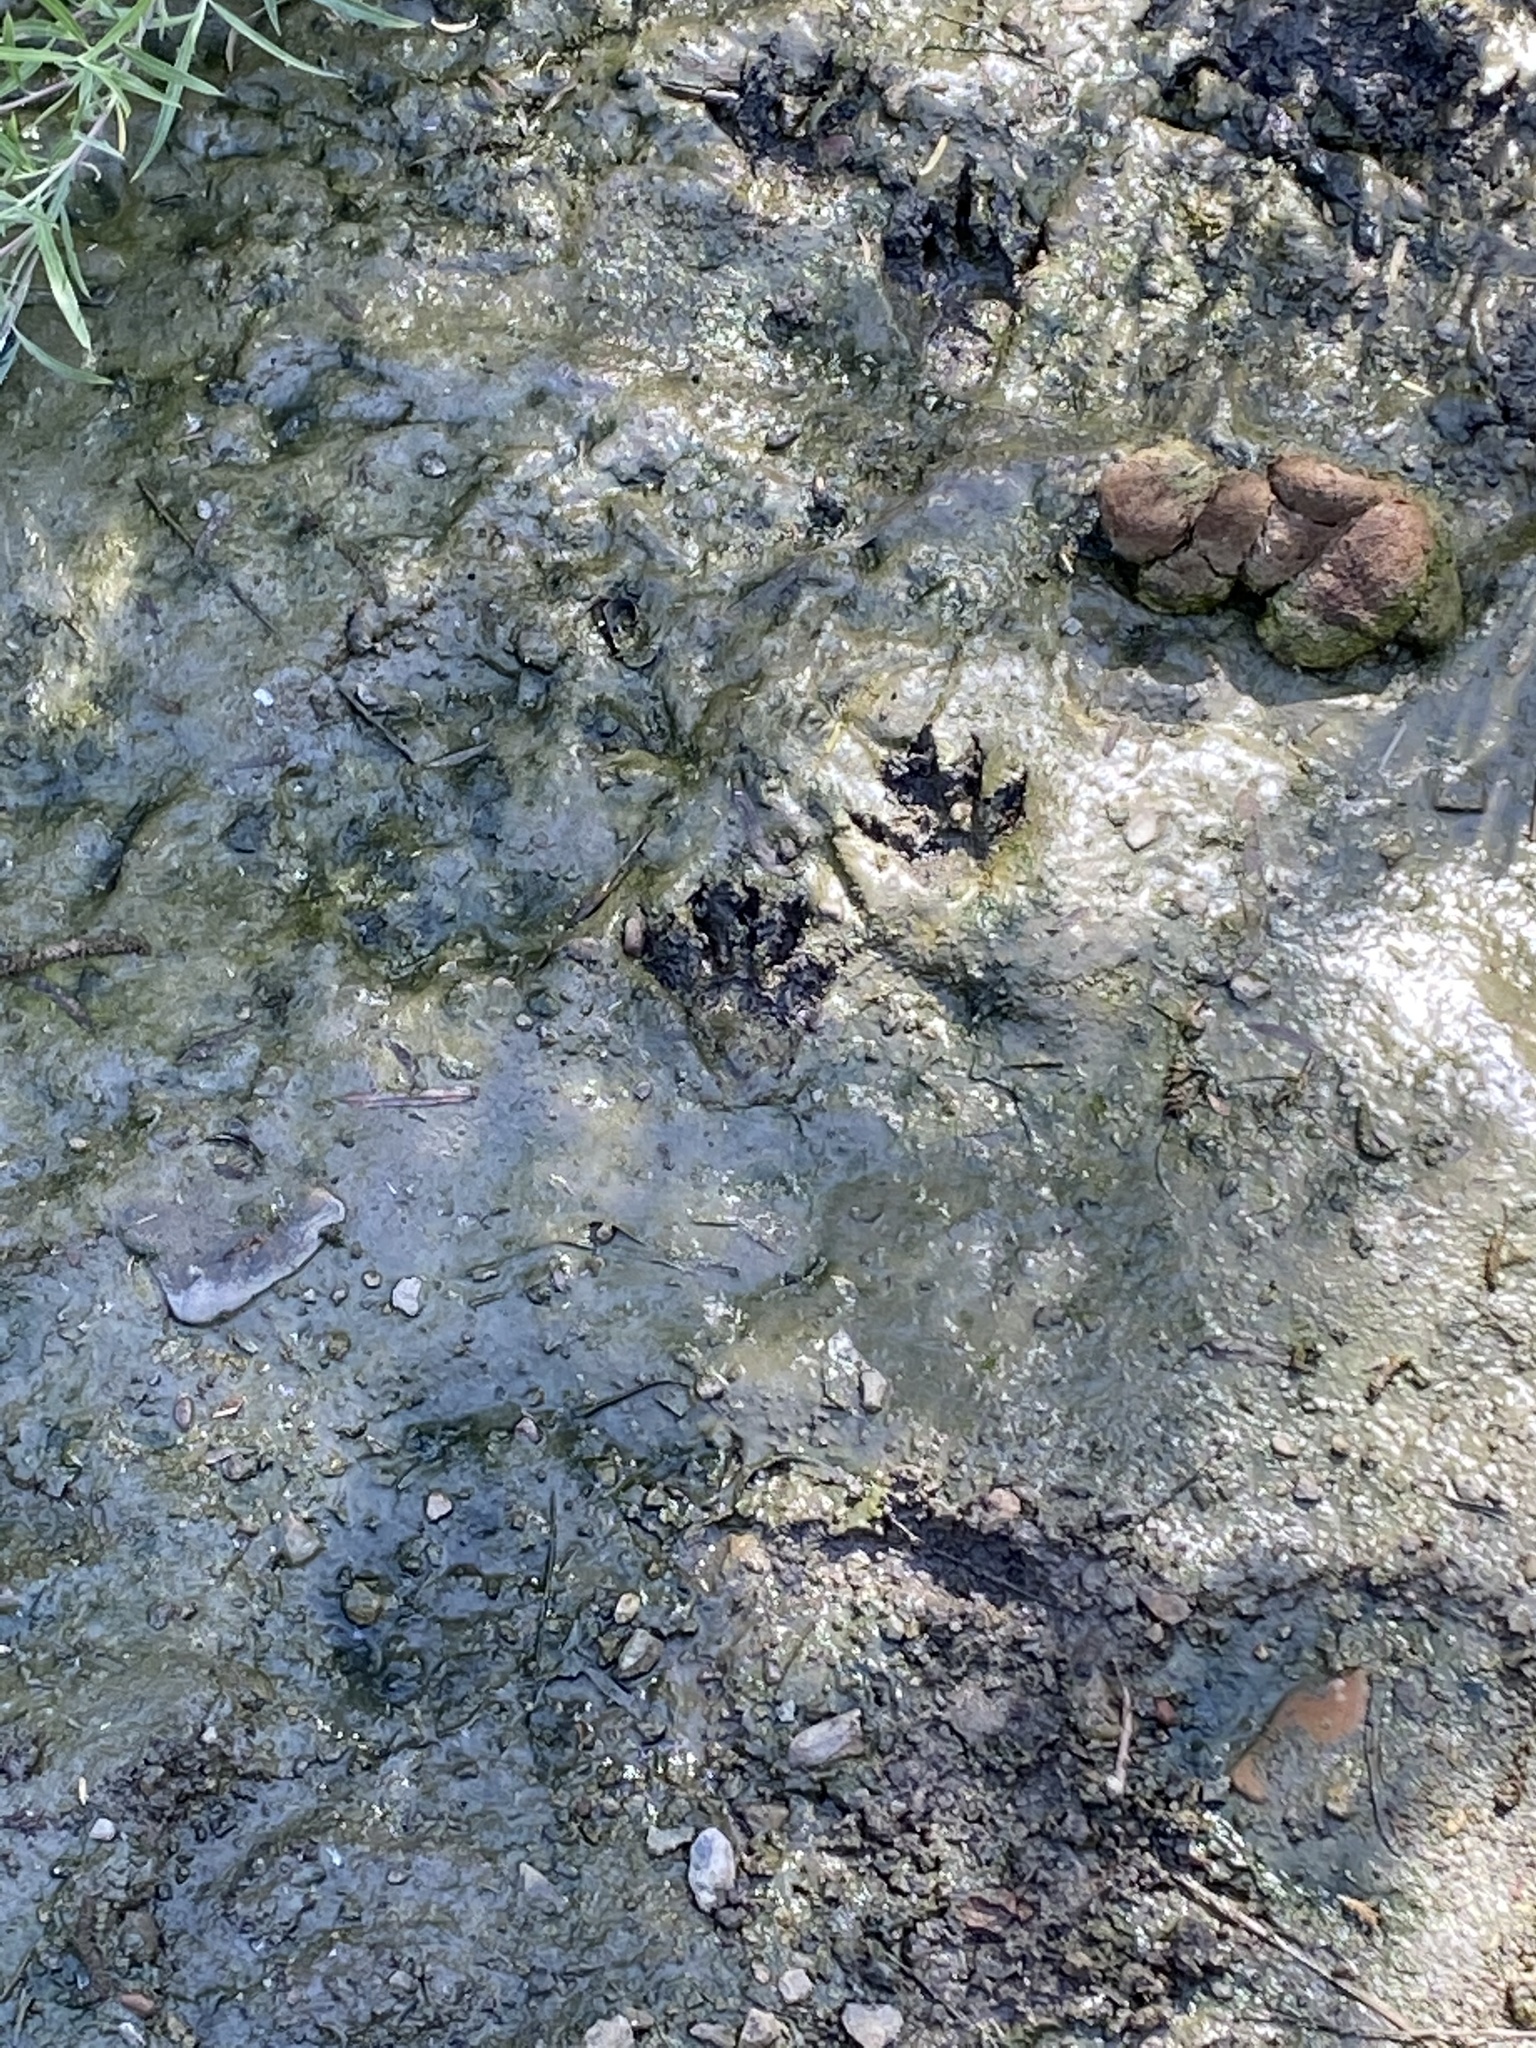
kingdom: Animalia
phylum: Chordata
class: Mammalia
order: Carnivora
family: Procyonidae
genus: Procyon
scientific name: Procyon lotor
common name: Raccoon
